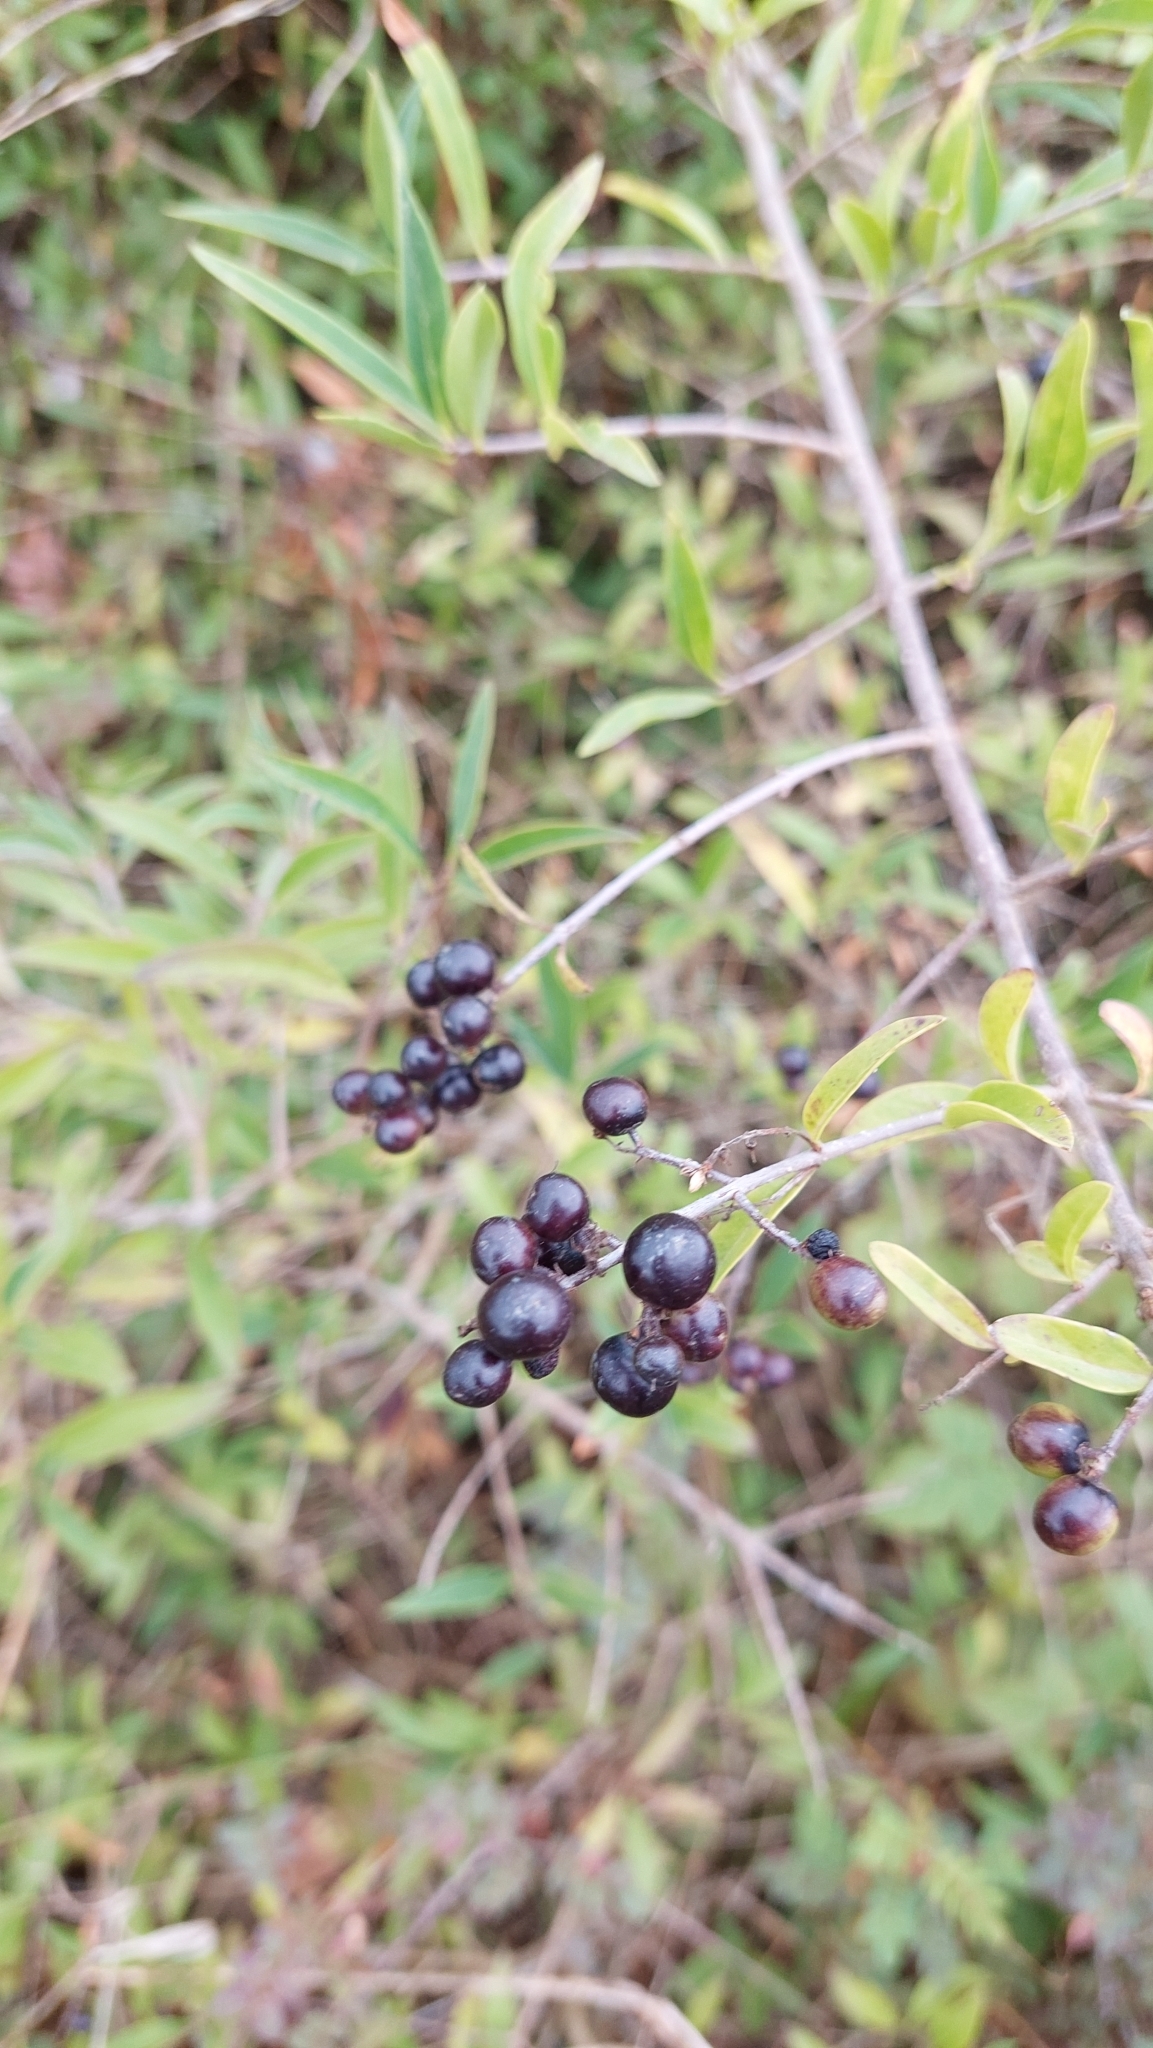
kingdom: Plantae
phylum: Tracheophyta
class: Magnoliopsida
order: Lamiales
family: Oleaceae
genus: Ligustrum
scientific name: Ligustrum vulgare
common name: Wild privet
